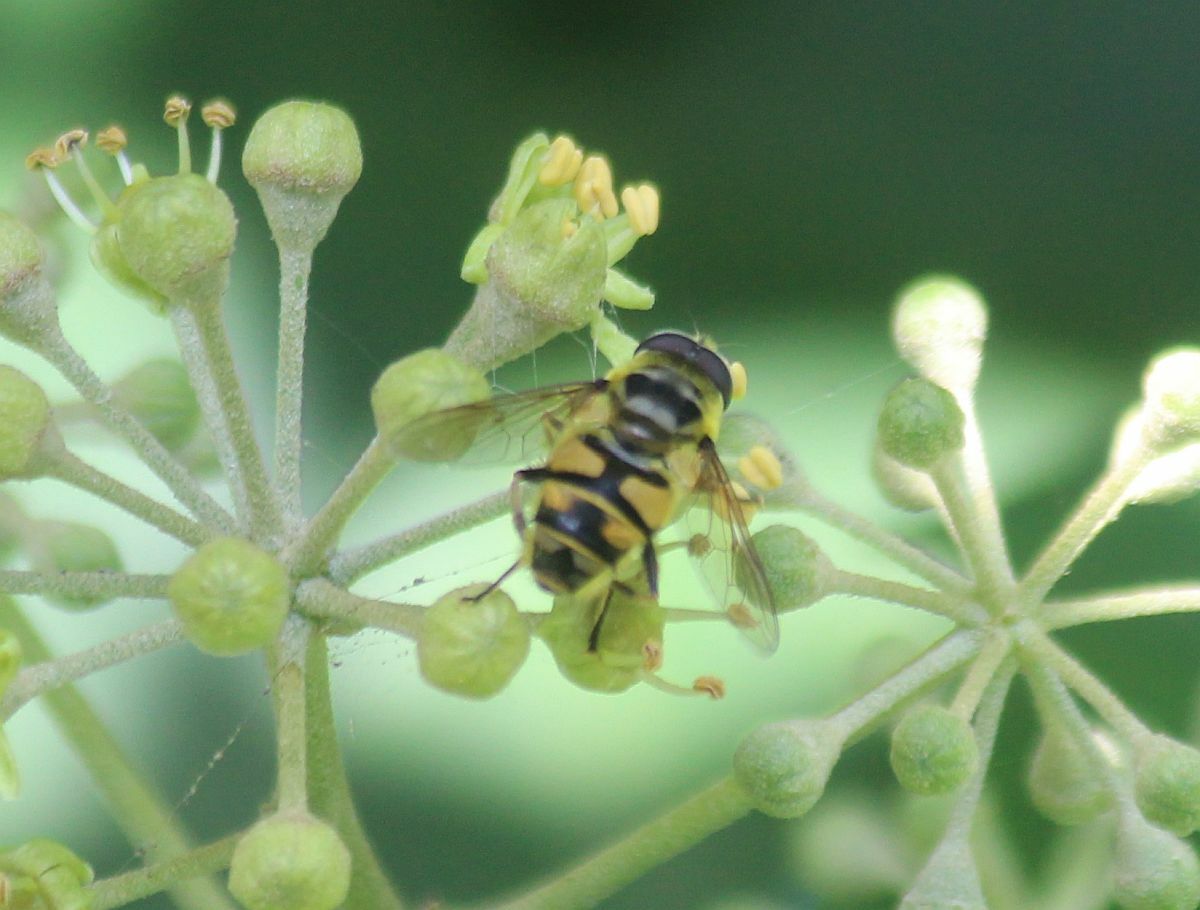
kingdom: Animalia
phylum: Arthropoda
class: Insecta
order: Diptera
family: Syrphidae
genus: Myathropa
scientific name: Myathropa florea
